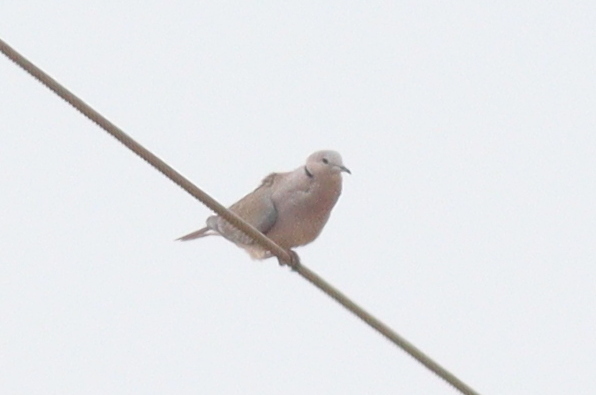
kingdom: Animalia
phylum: Chordata
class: Aves
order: Columbiformes
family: Columbidae
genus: Streptopelia
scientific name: Streptopelia capicola
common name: Ring-necked dove
